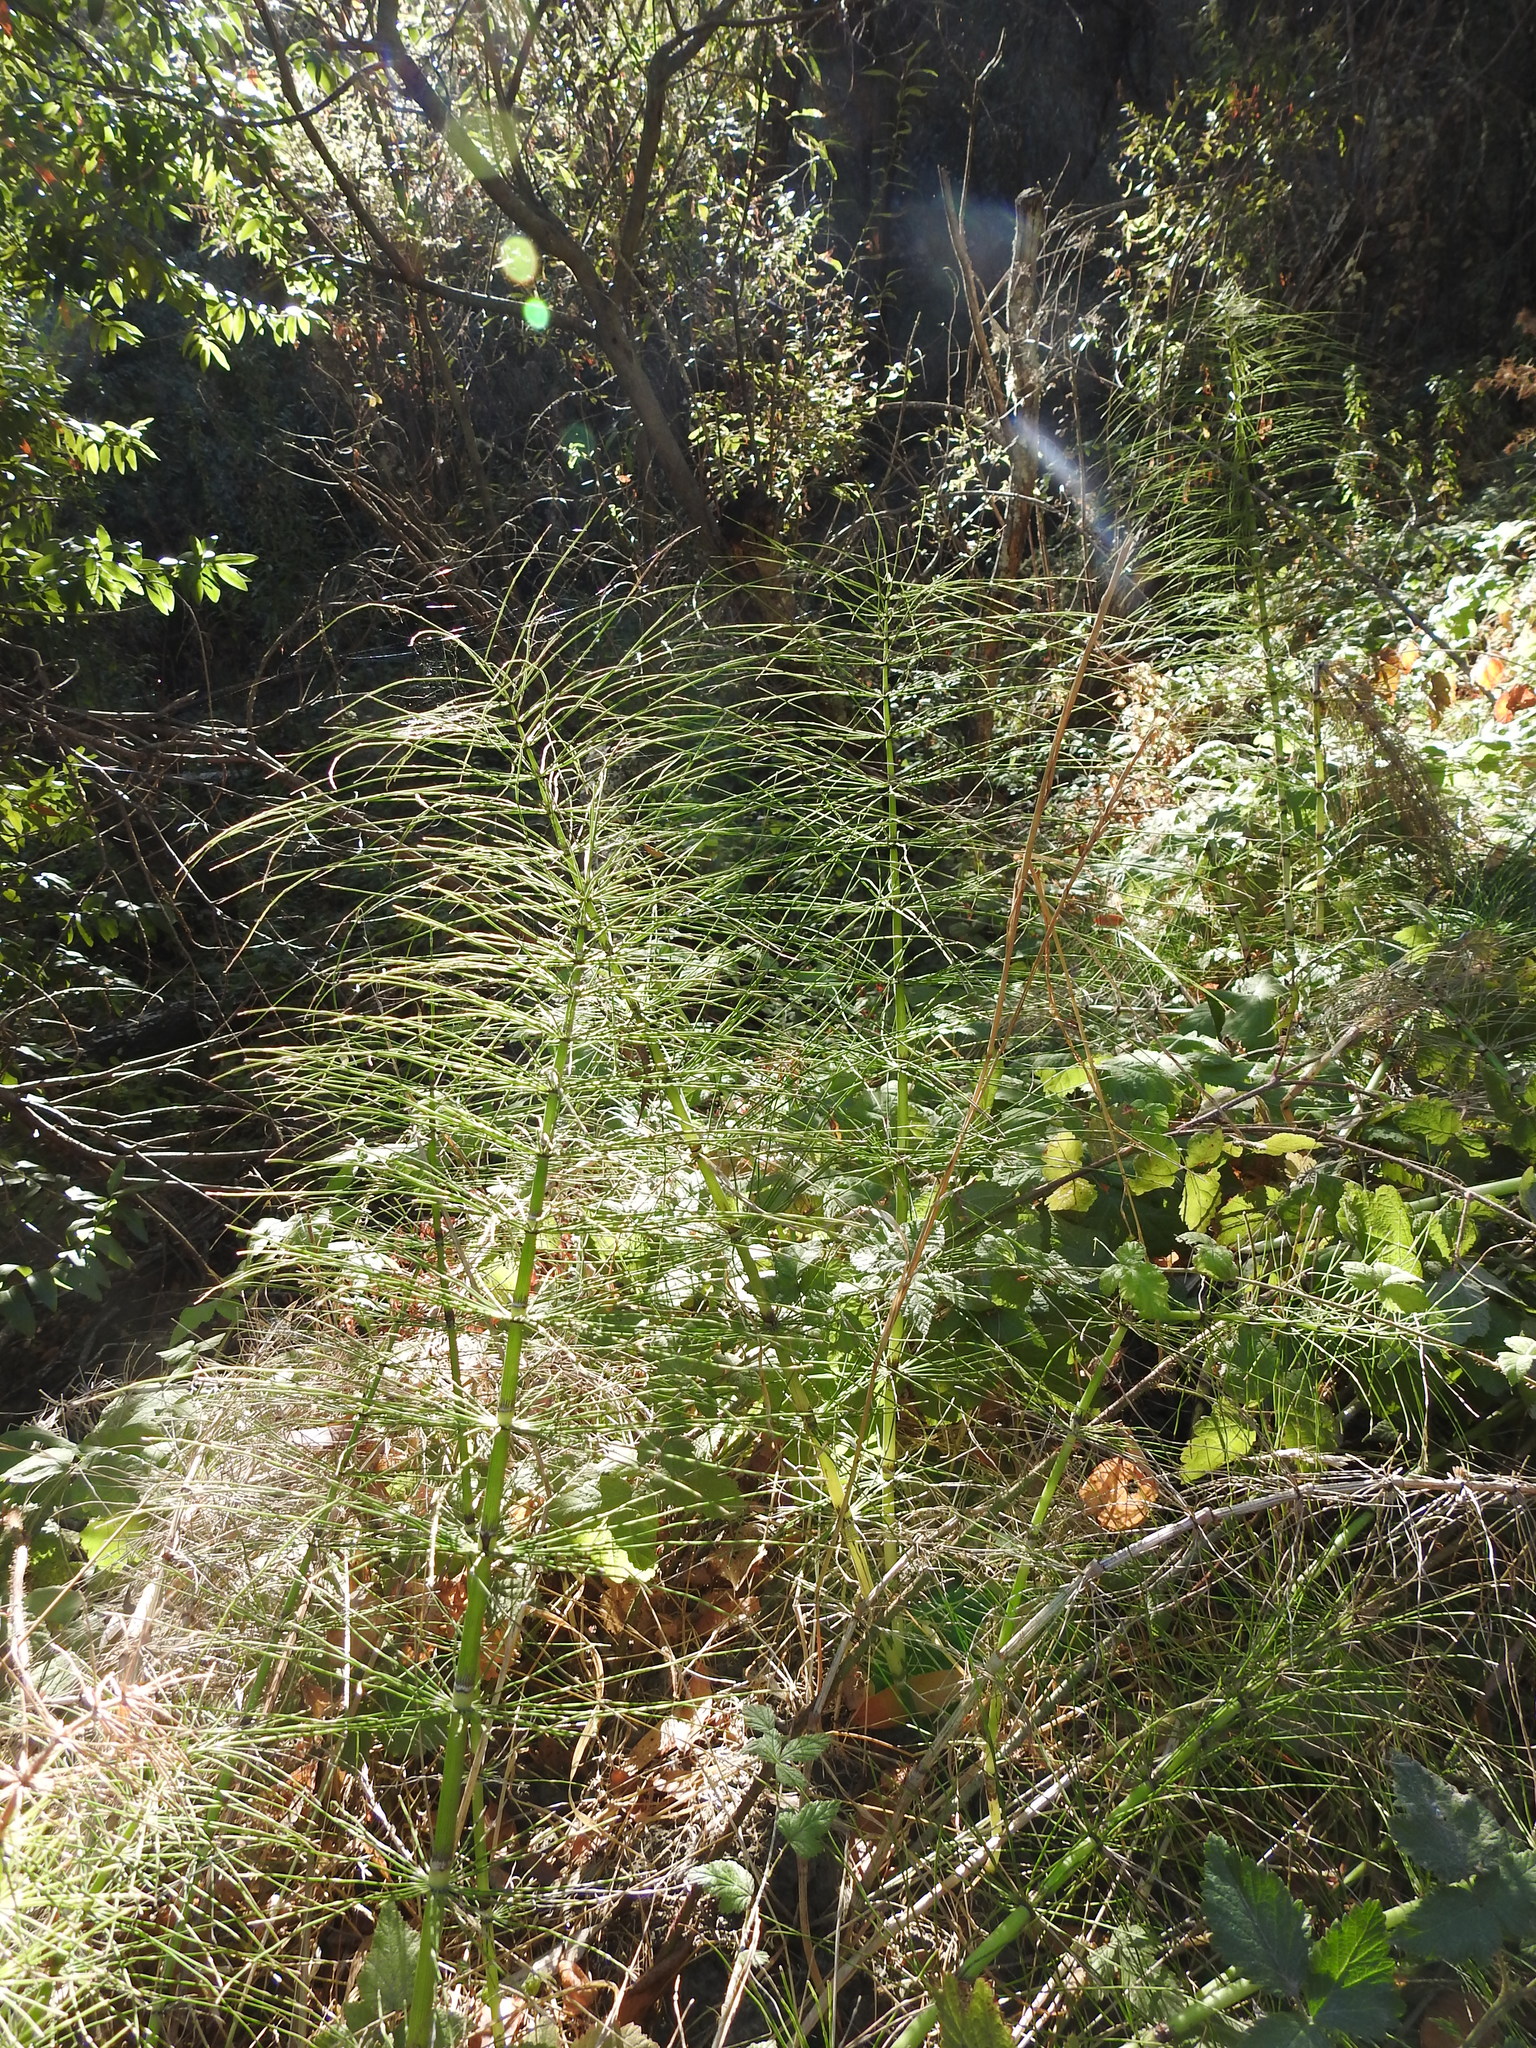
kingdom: Plantae
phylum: Tracheophyta
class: Polypodiopsida
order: Equisetales
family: Equisetaceae
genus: Equisetum
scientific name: Equisetum telmateia
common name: Great horsetail
